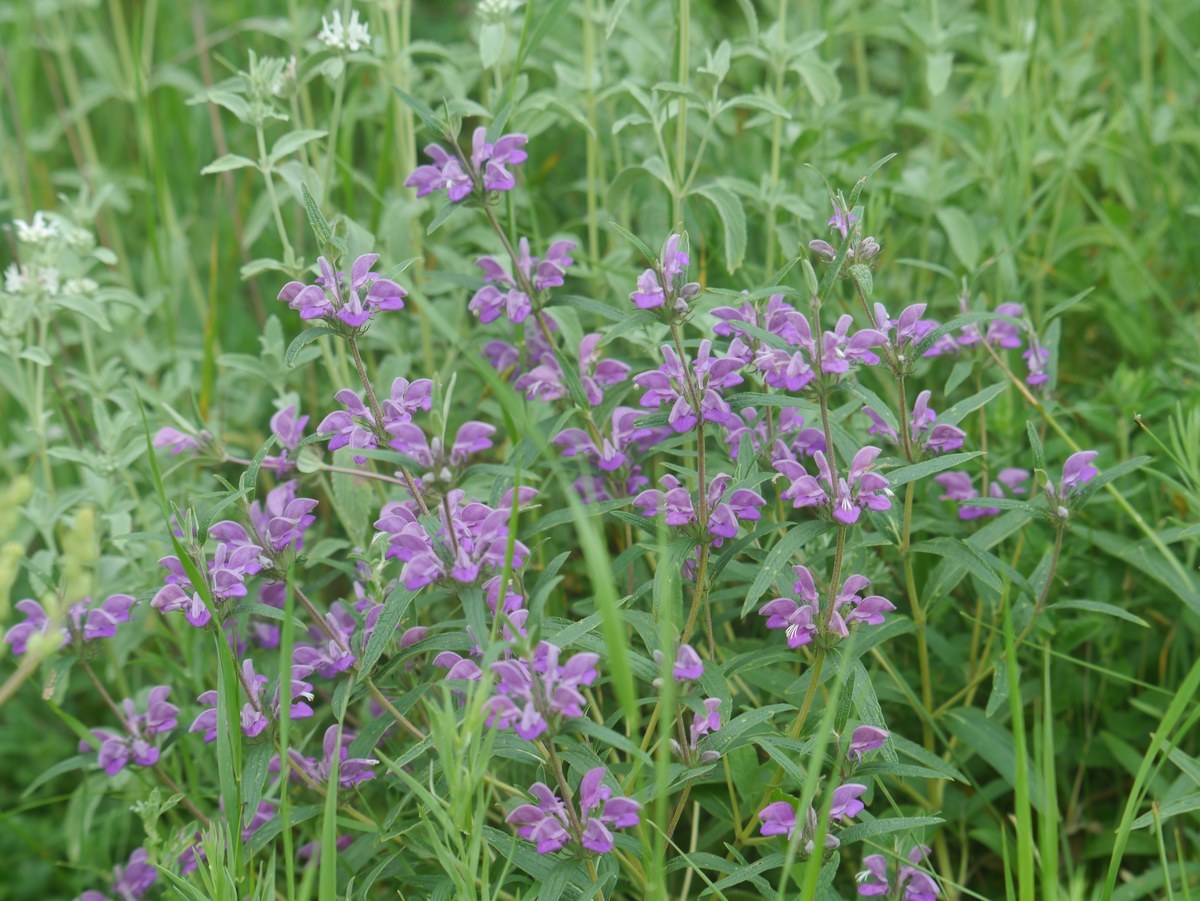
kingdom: Plantae
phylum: Tracheophyta
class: Magnoliopsida
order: Lamiales
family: Lamiaceae
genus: Phlomis
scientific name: Phlomis herba-venti
